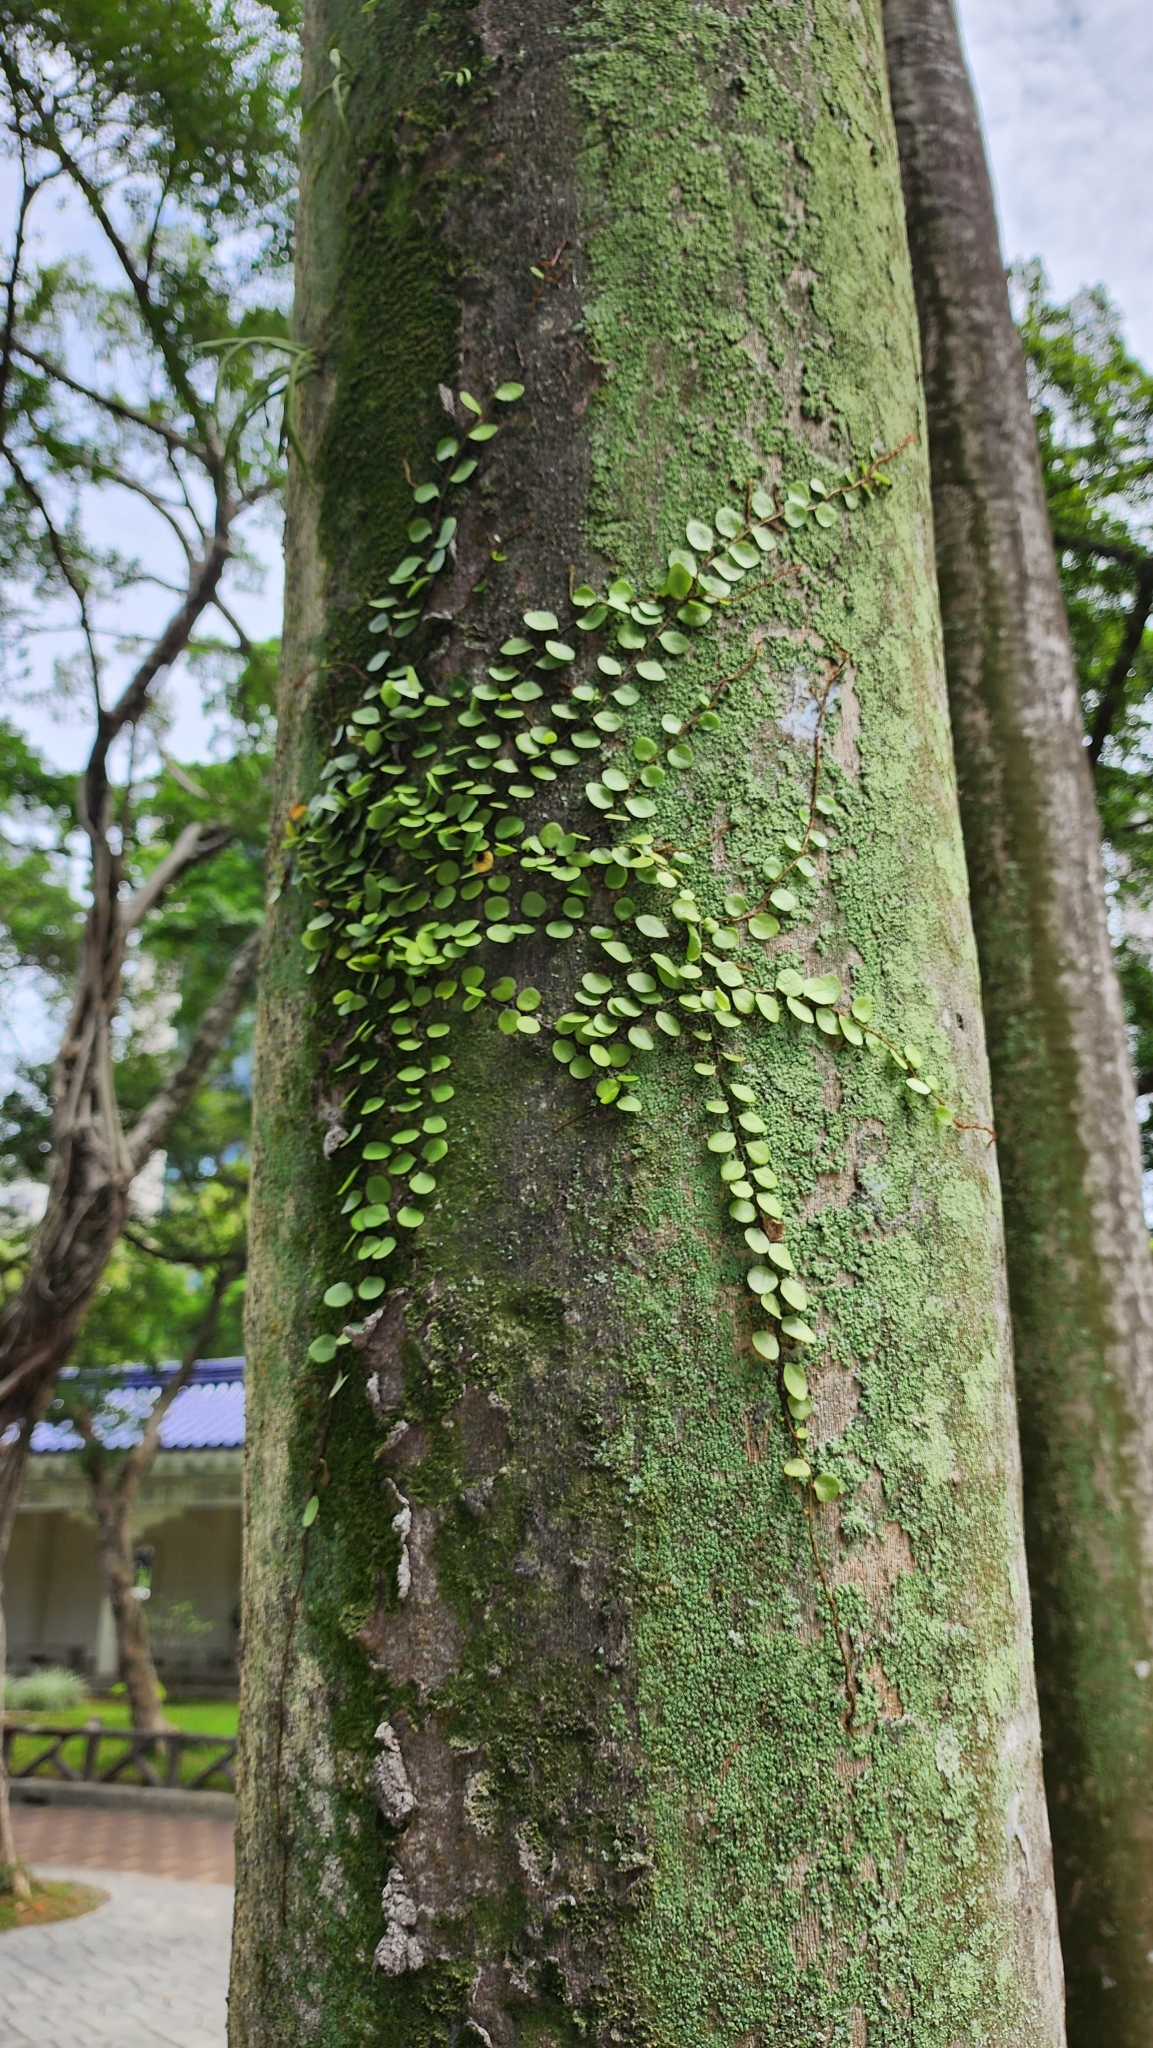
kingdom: Plantae
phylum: Tracheophyta
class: Polypodiopsida
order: Polypodiales
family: Polypodiaceae
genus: Lepisorus
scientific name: Lepisorus microphyllus
